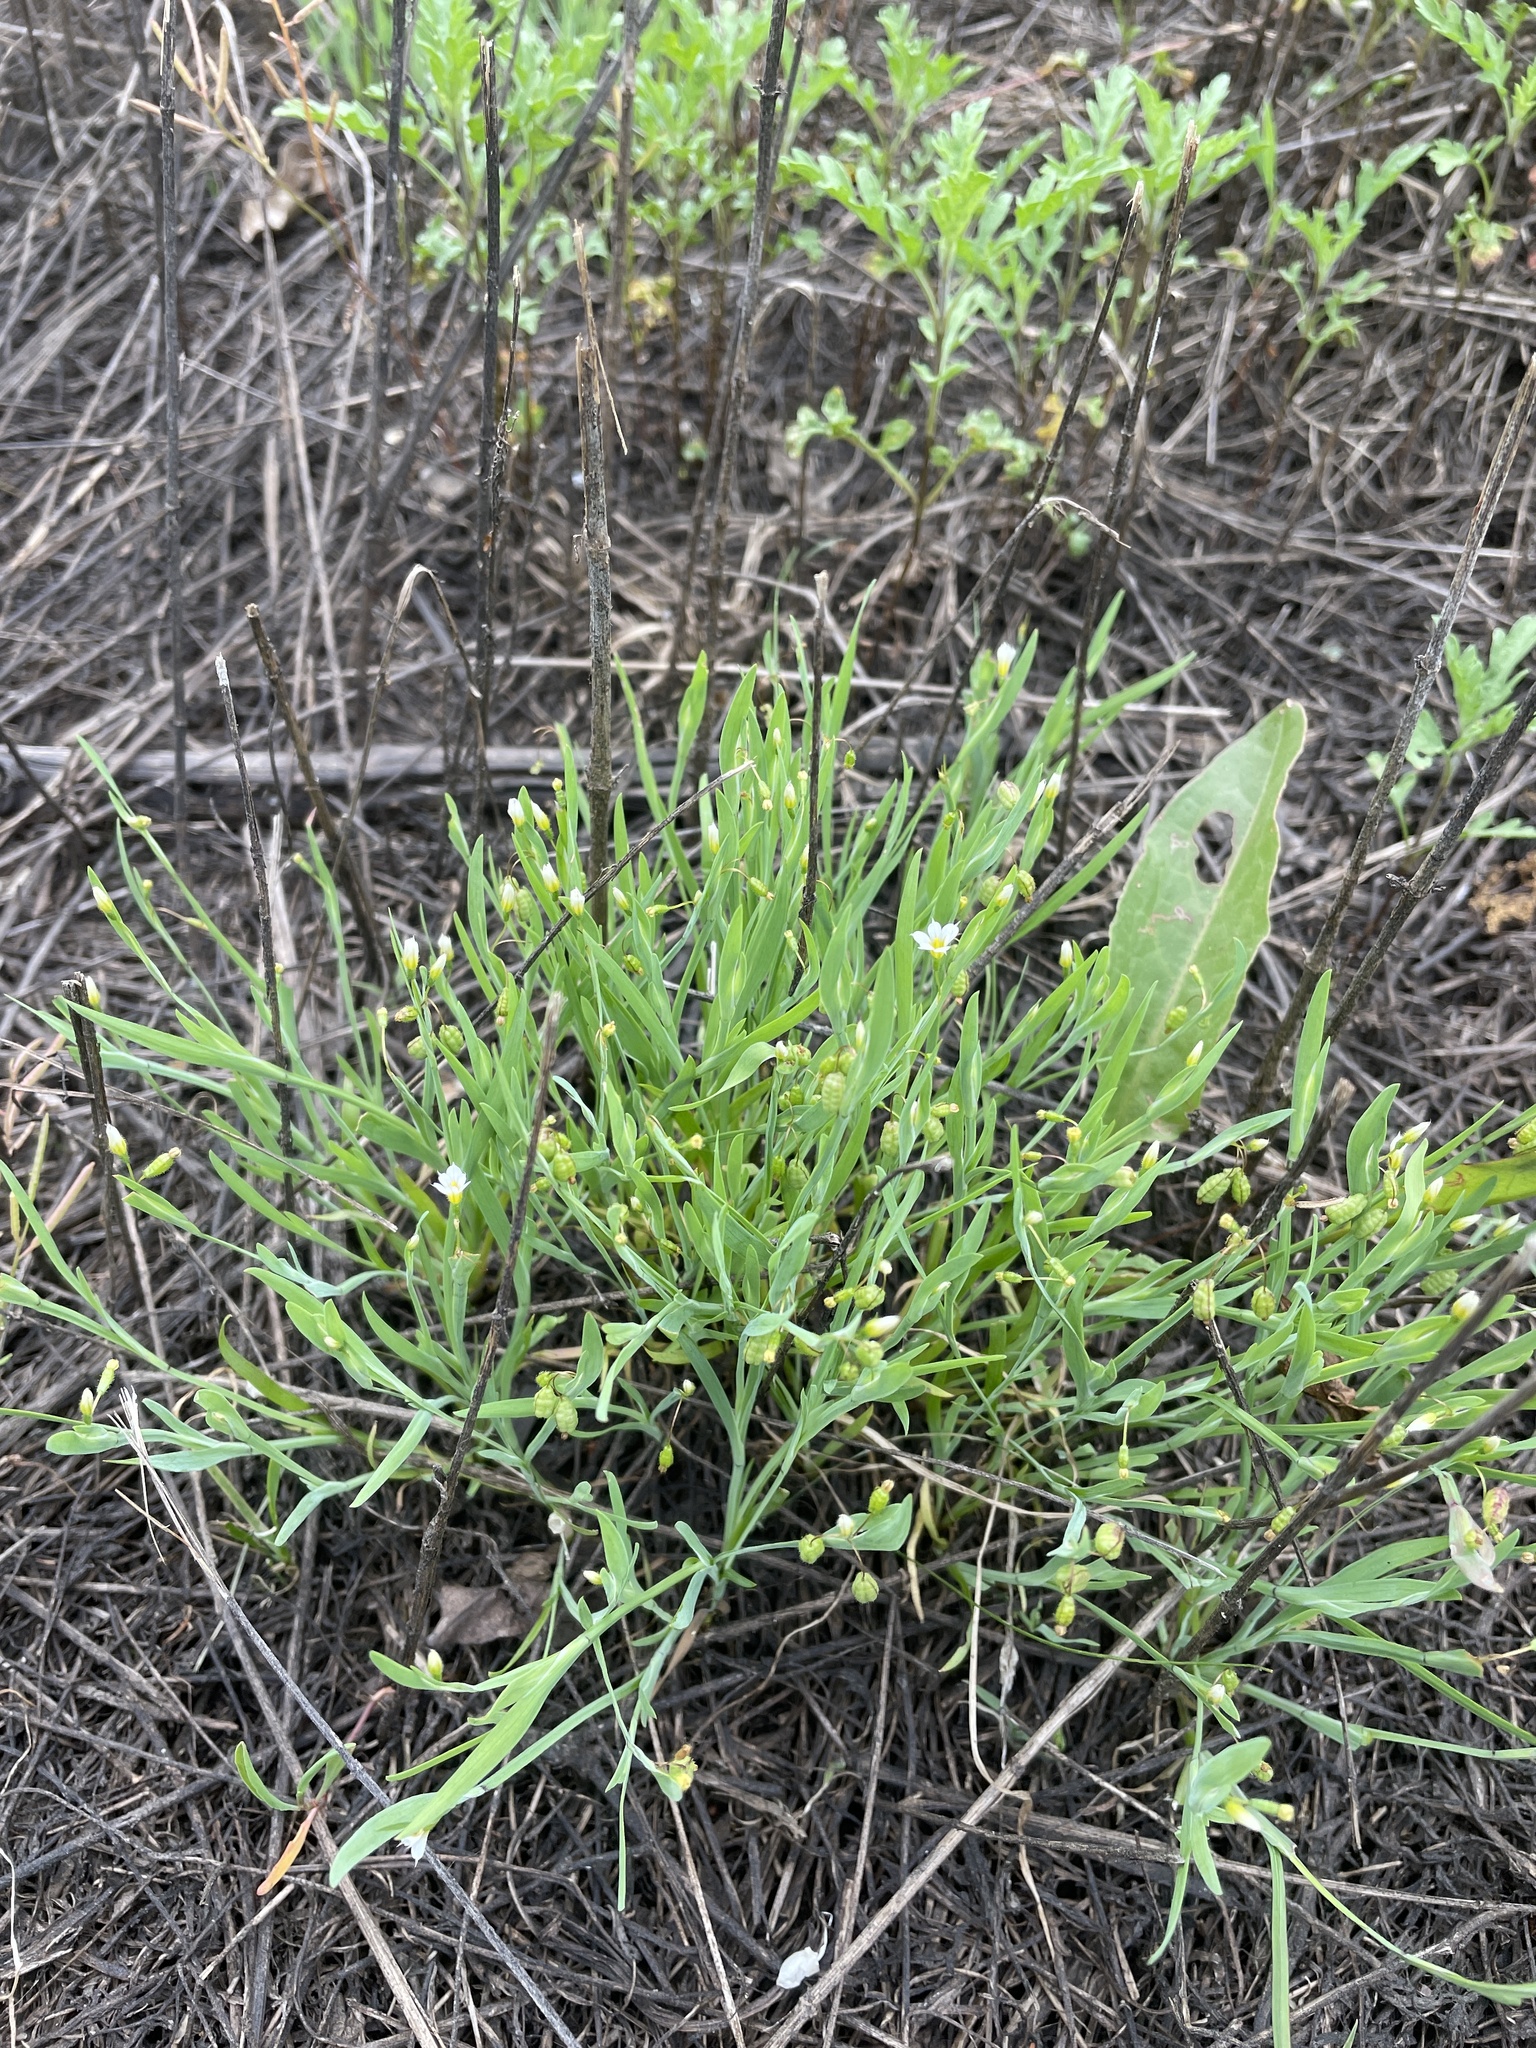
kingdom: Plantae
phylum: Tracheophyta
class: Liliopsida
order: Asparagales
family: Iridaceae
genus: Sisyrinchium
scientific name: Sisyrinchium minus
